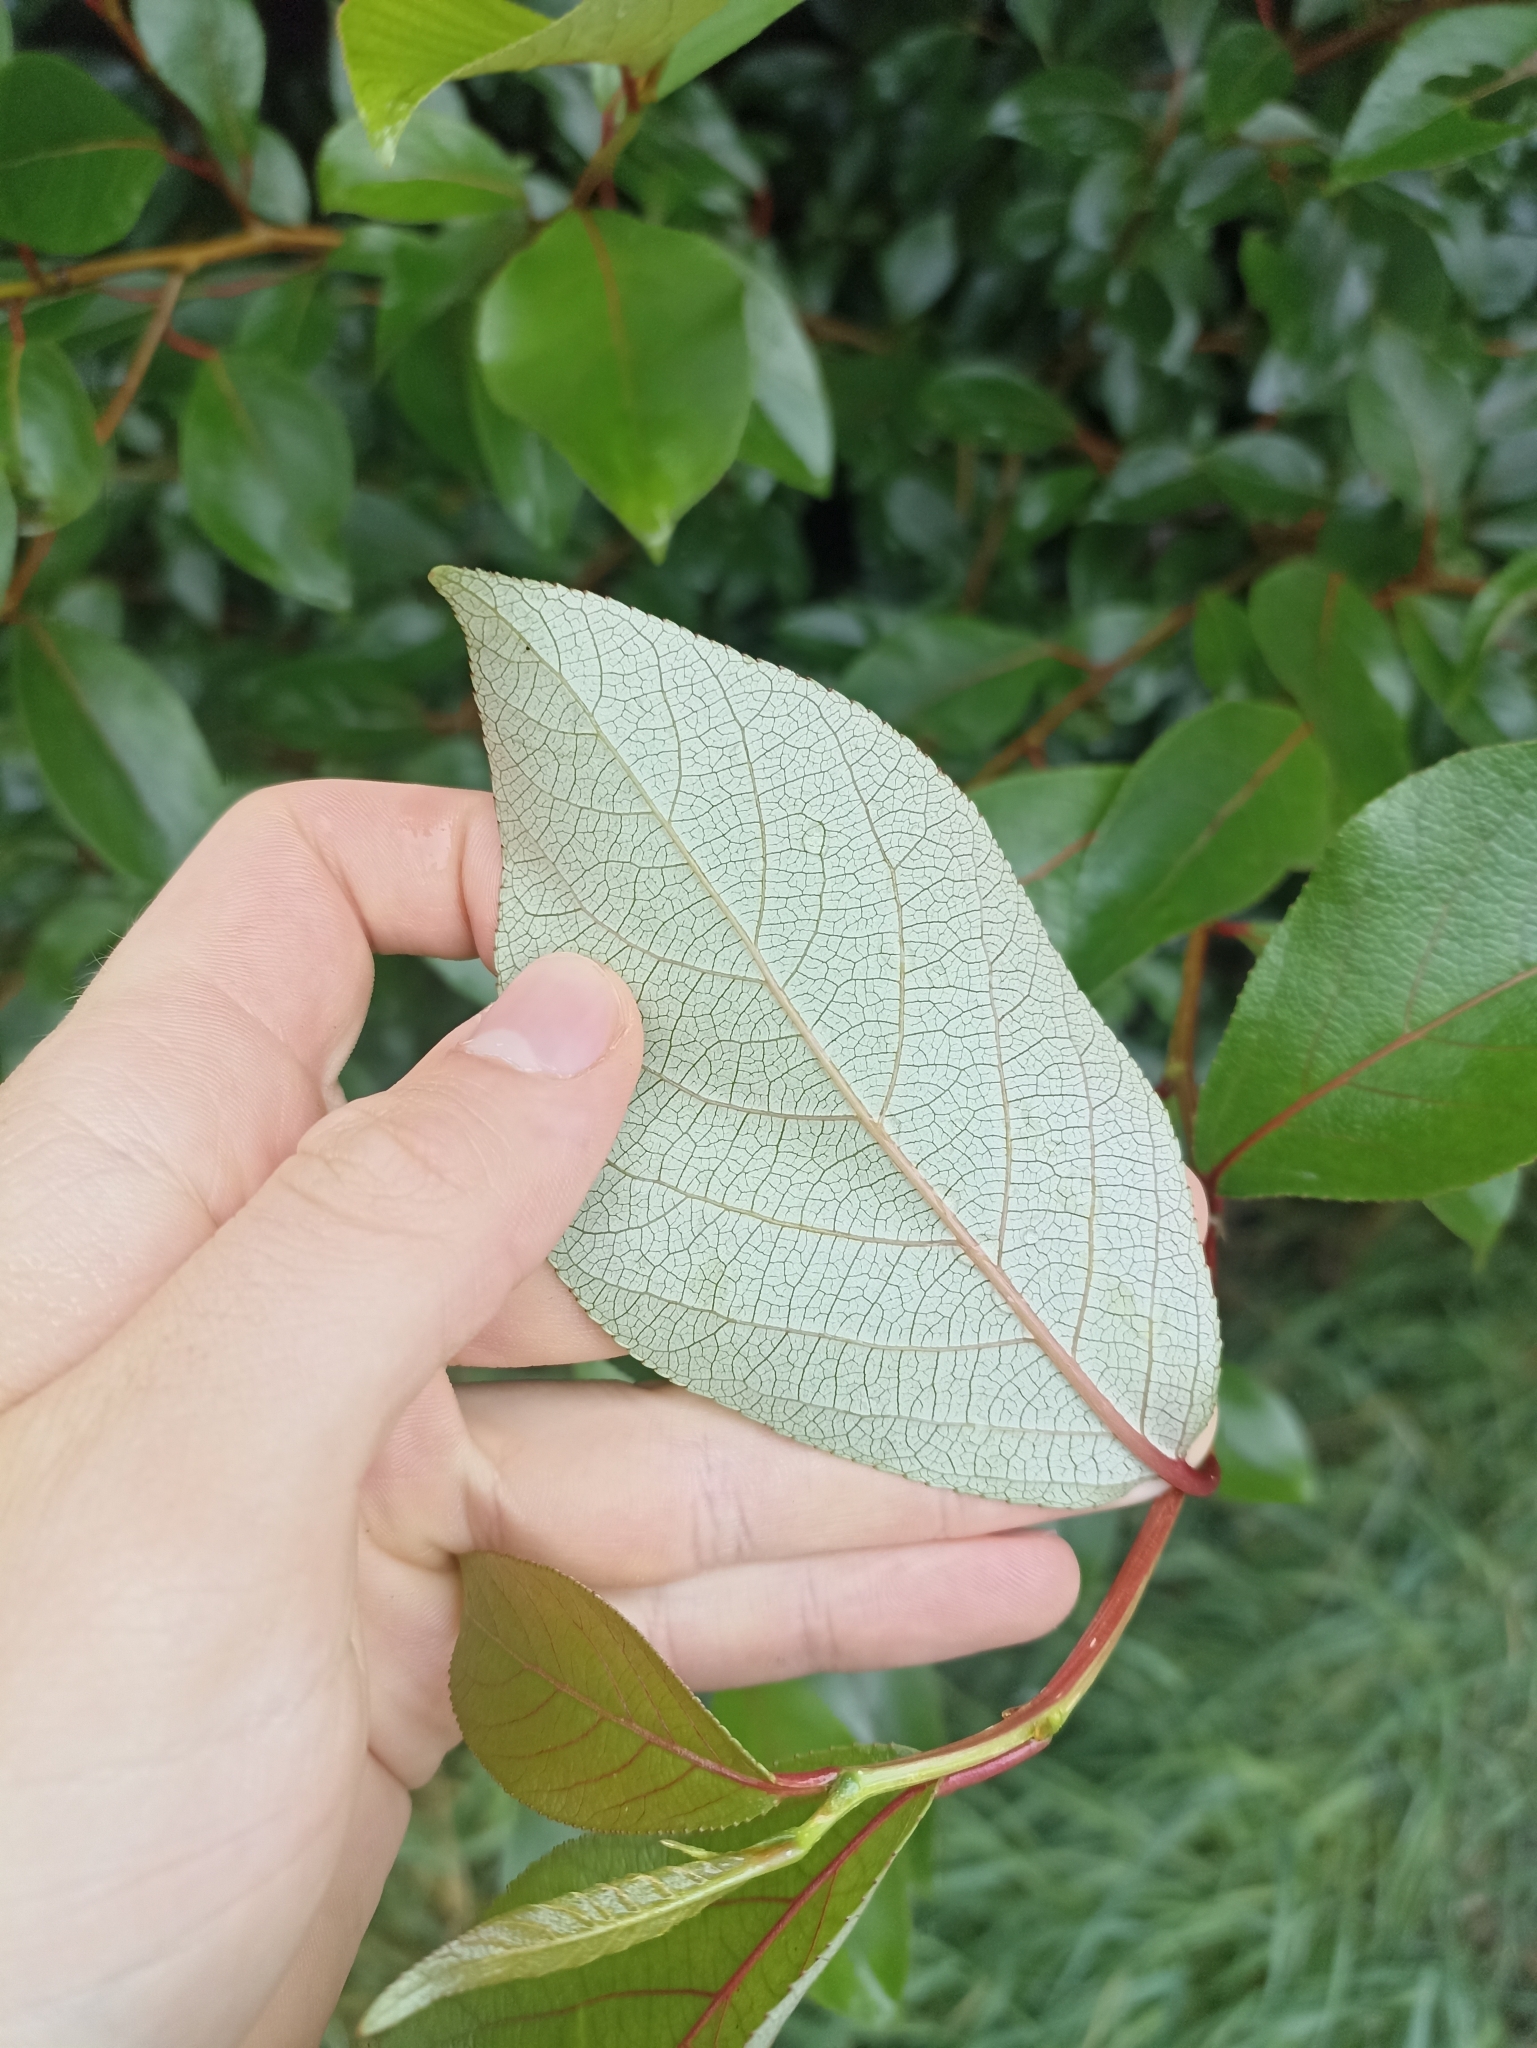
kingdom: Plantae
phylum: Tracheophyta
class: Magnoliopsida
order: Malpighiales
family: Salicaceae
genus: Populus
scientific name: Populus yunnanensis
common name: Yunnan poplar
